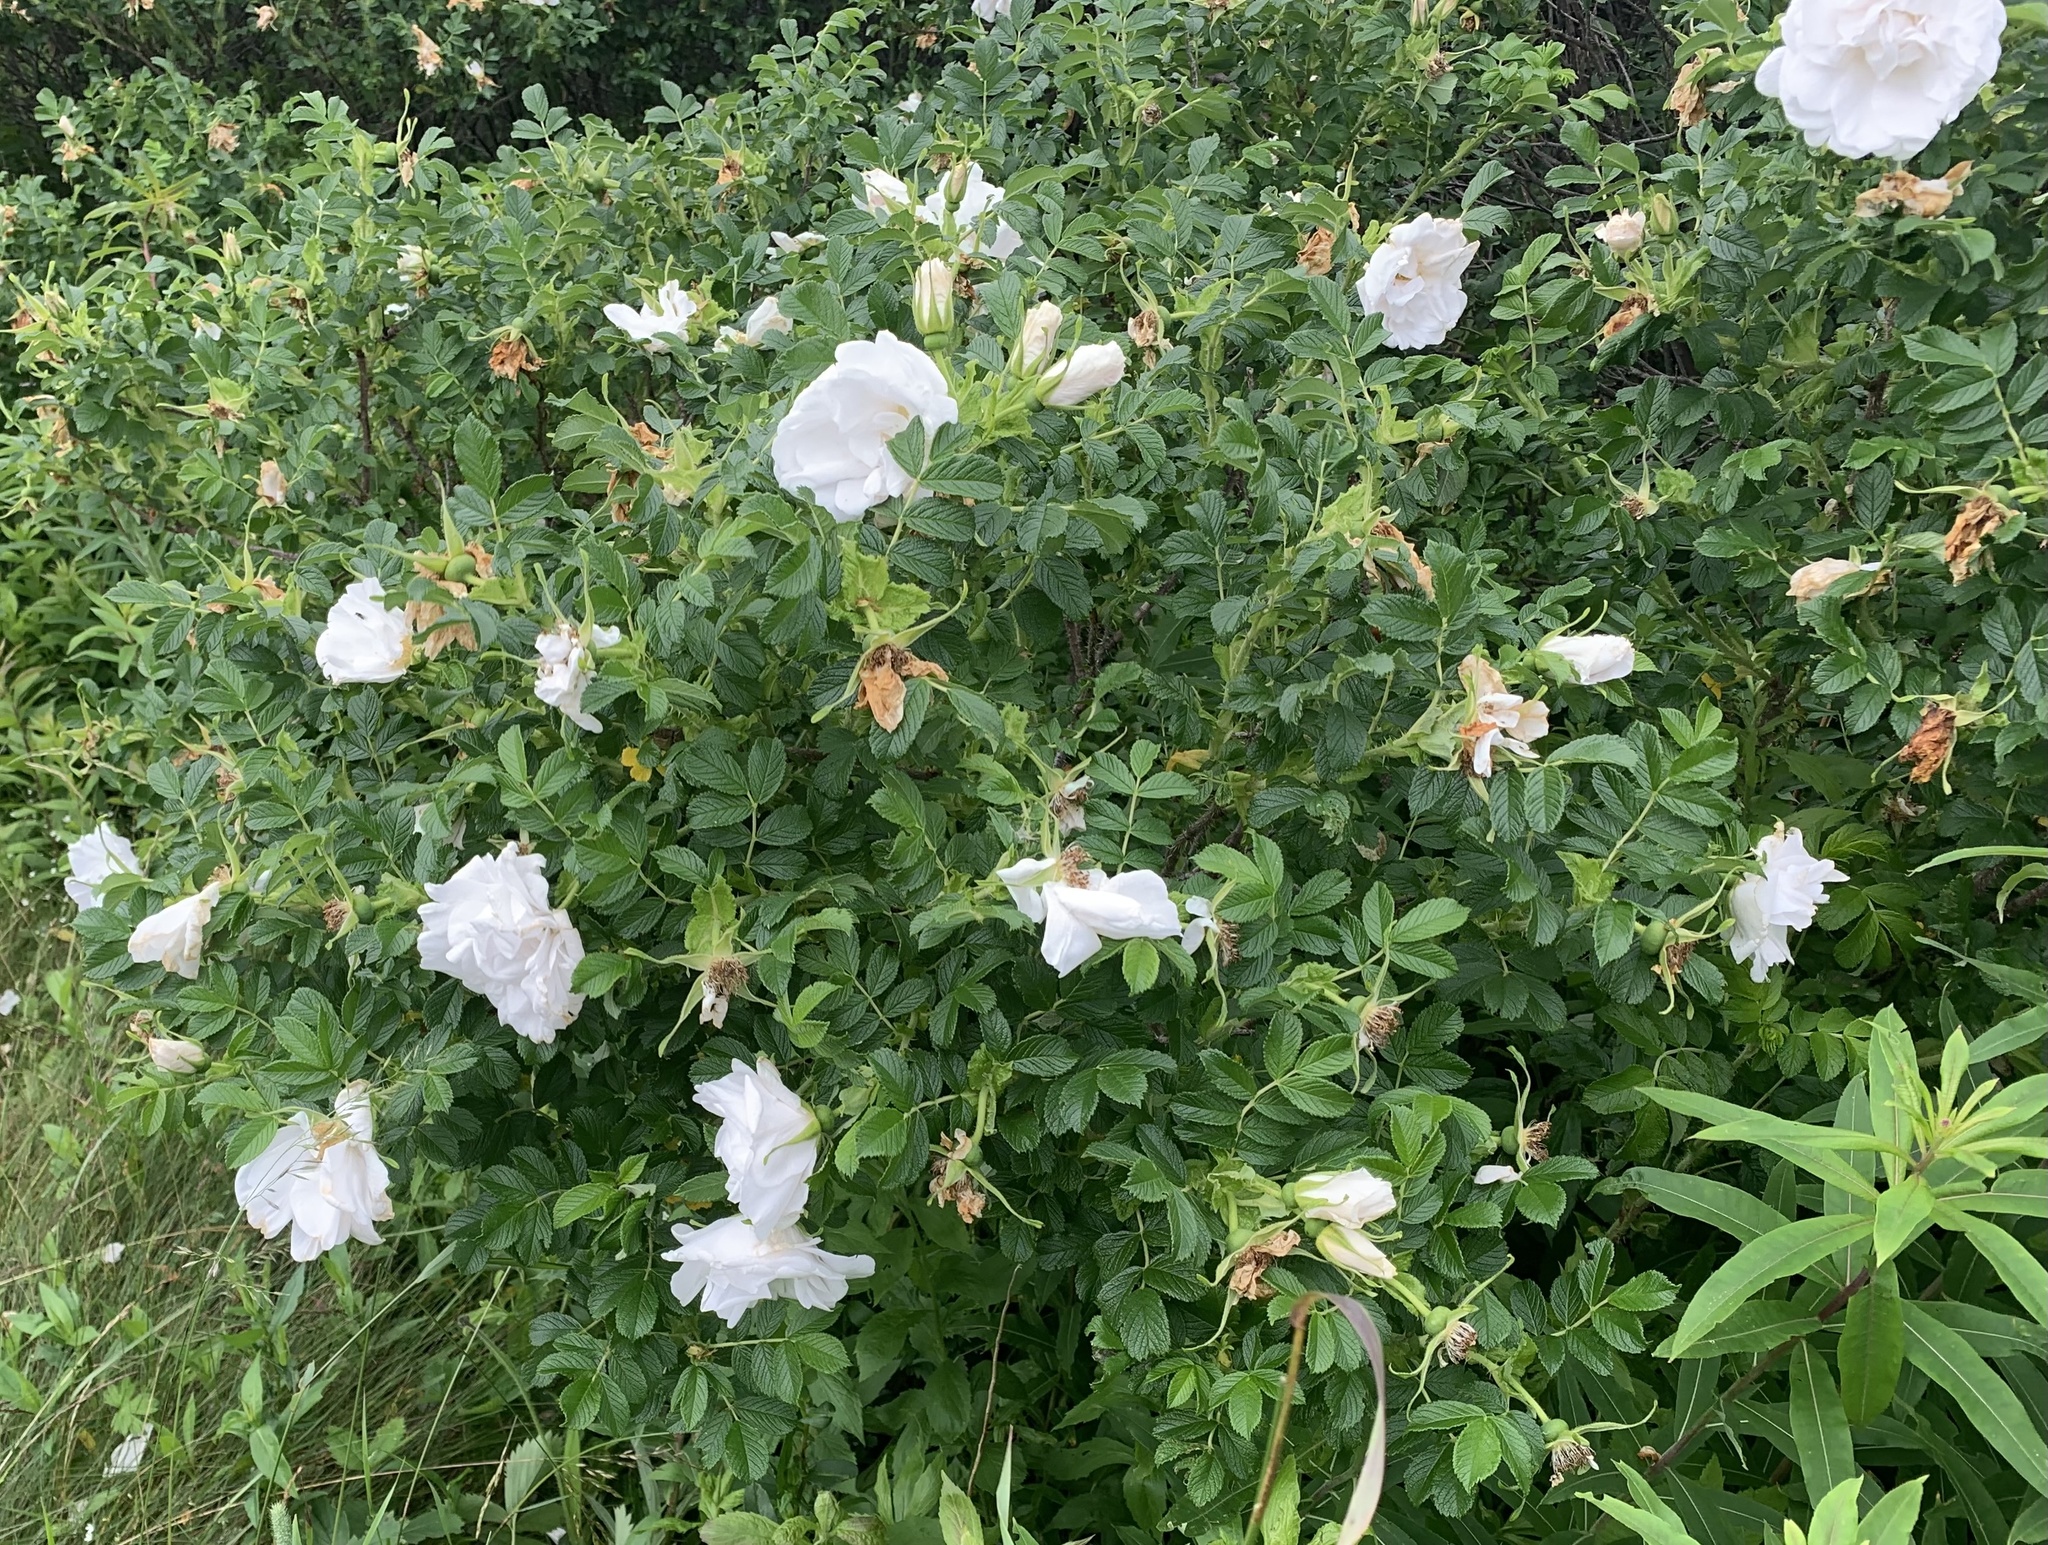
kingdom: Plantae
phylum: Tracheophyta
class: Magnoliopsida
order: Rosales
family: Rosaceae
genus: Rosa
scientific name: Rosa rugosa
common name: Japanese rose
